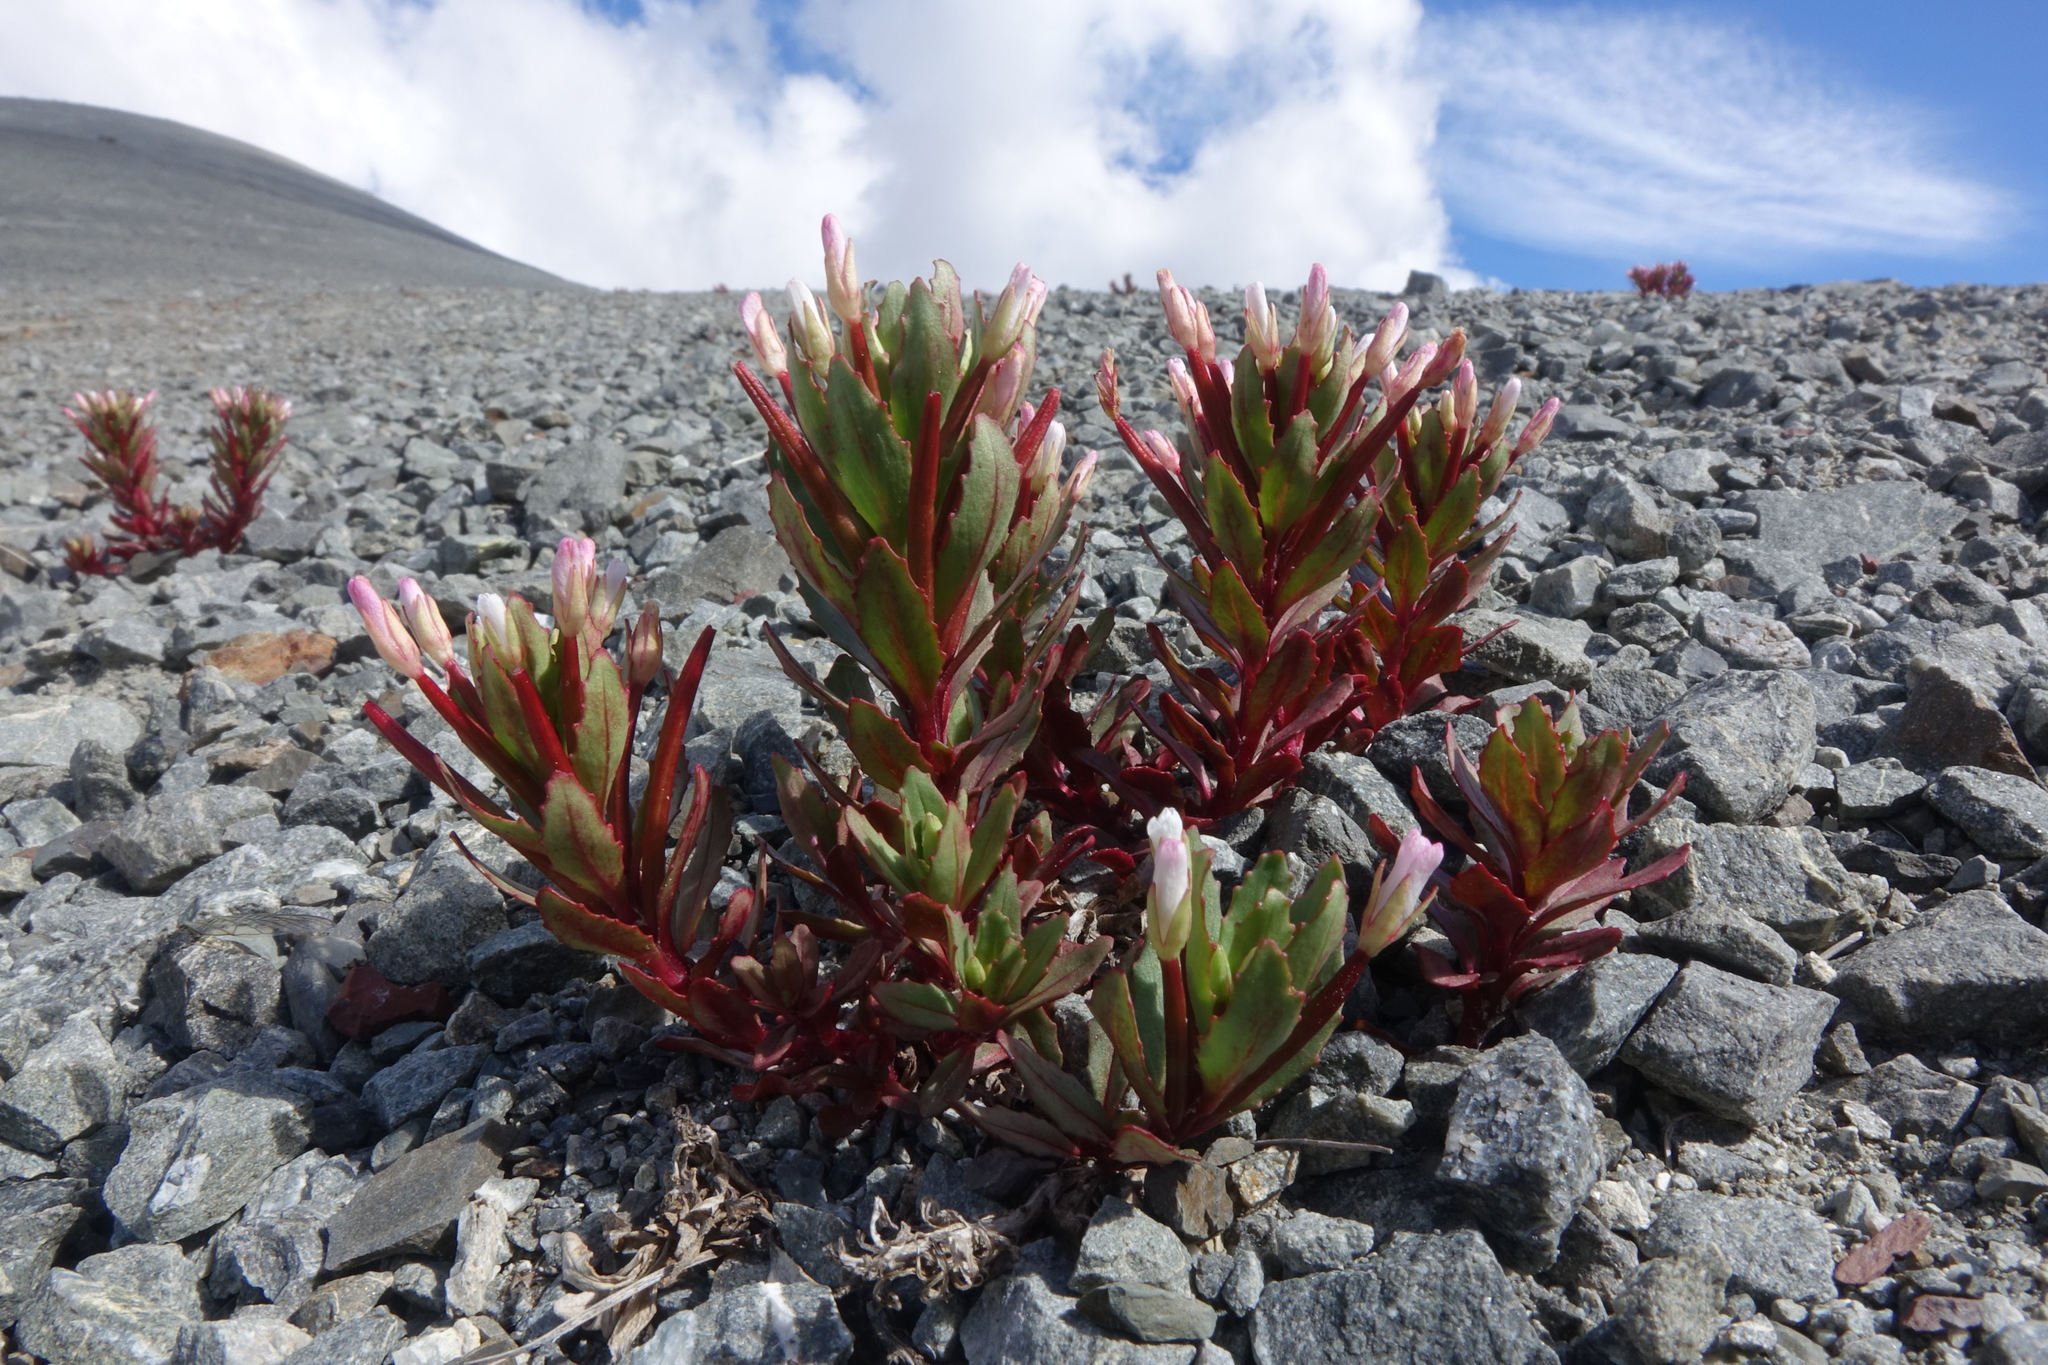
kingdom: Plantae
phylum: Tracheophyta
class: Magnoliopsida
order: Myrtales
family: Onagraceae
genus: Epilobium
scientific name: Epilobium pycnostachyum
